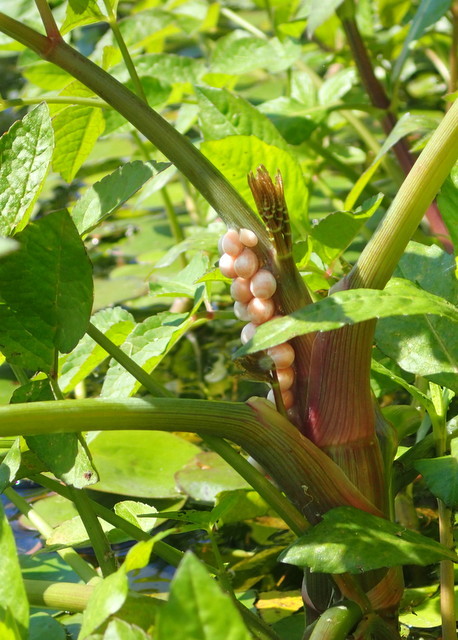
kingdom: Animalia
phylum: Mollusca
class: Gastropoda
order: Architaenioglossa
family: Ampullariidae
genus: Pomacea
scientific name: Pomacea paludosa
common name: Florida applesnail
